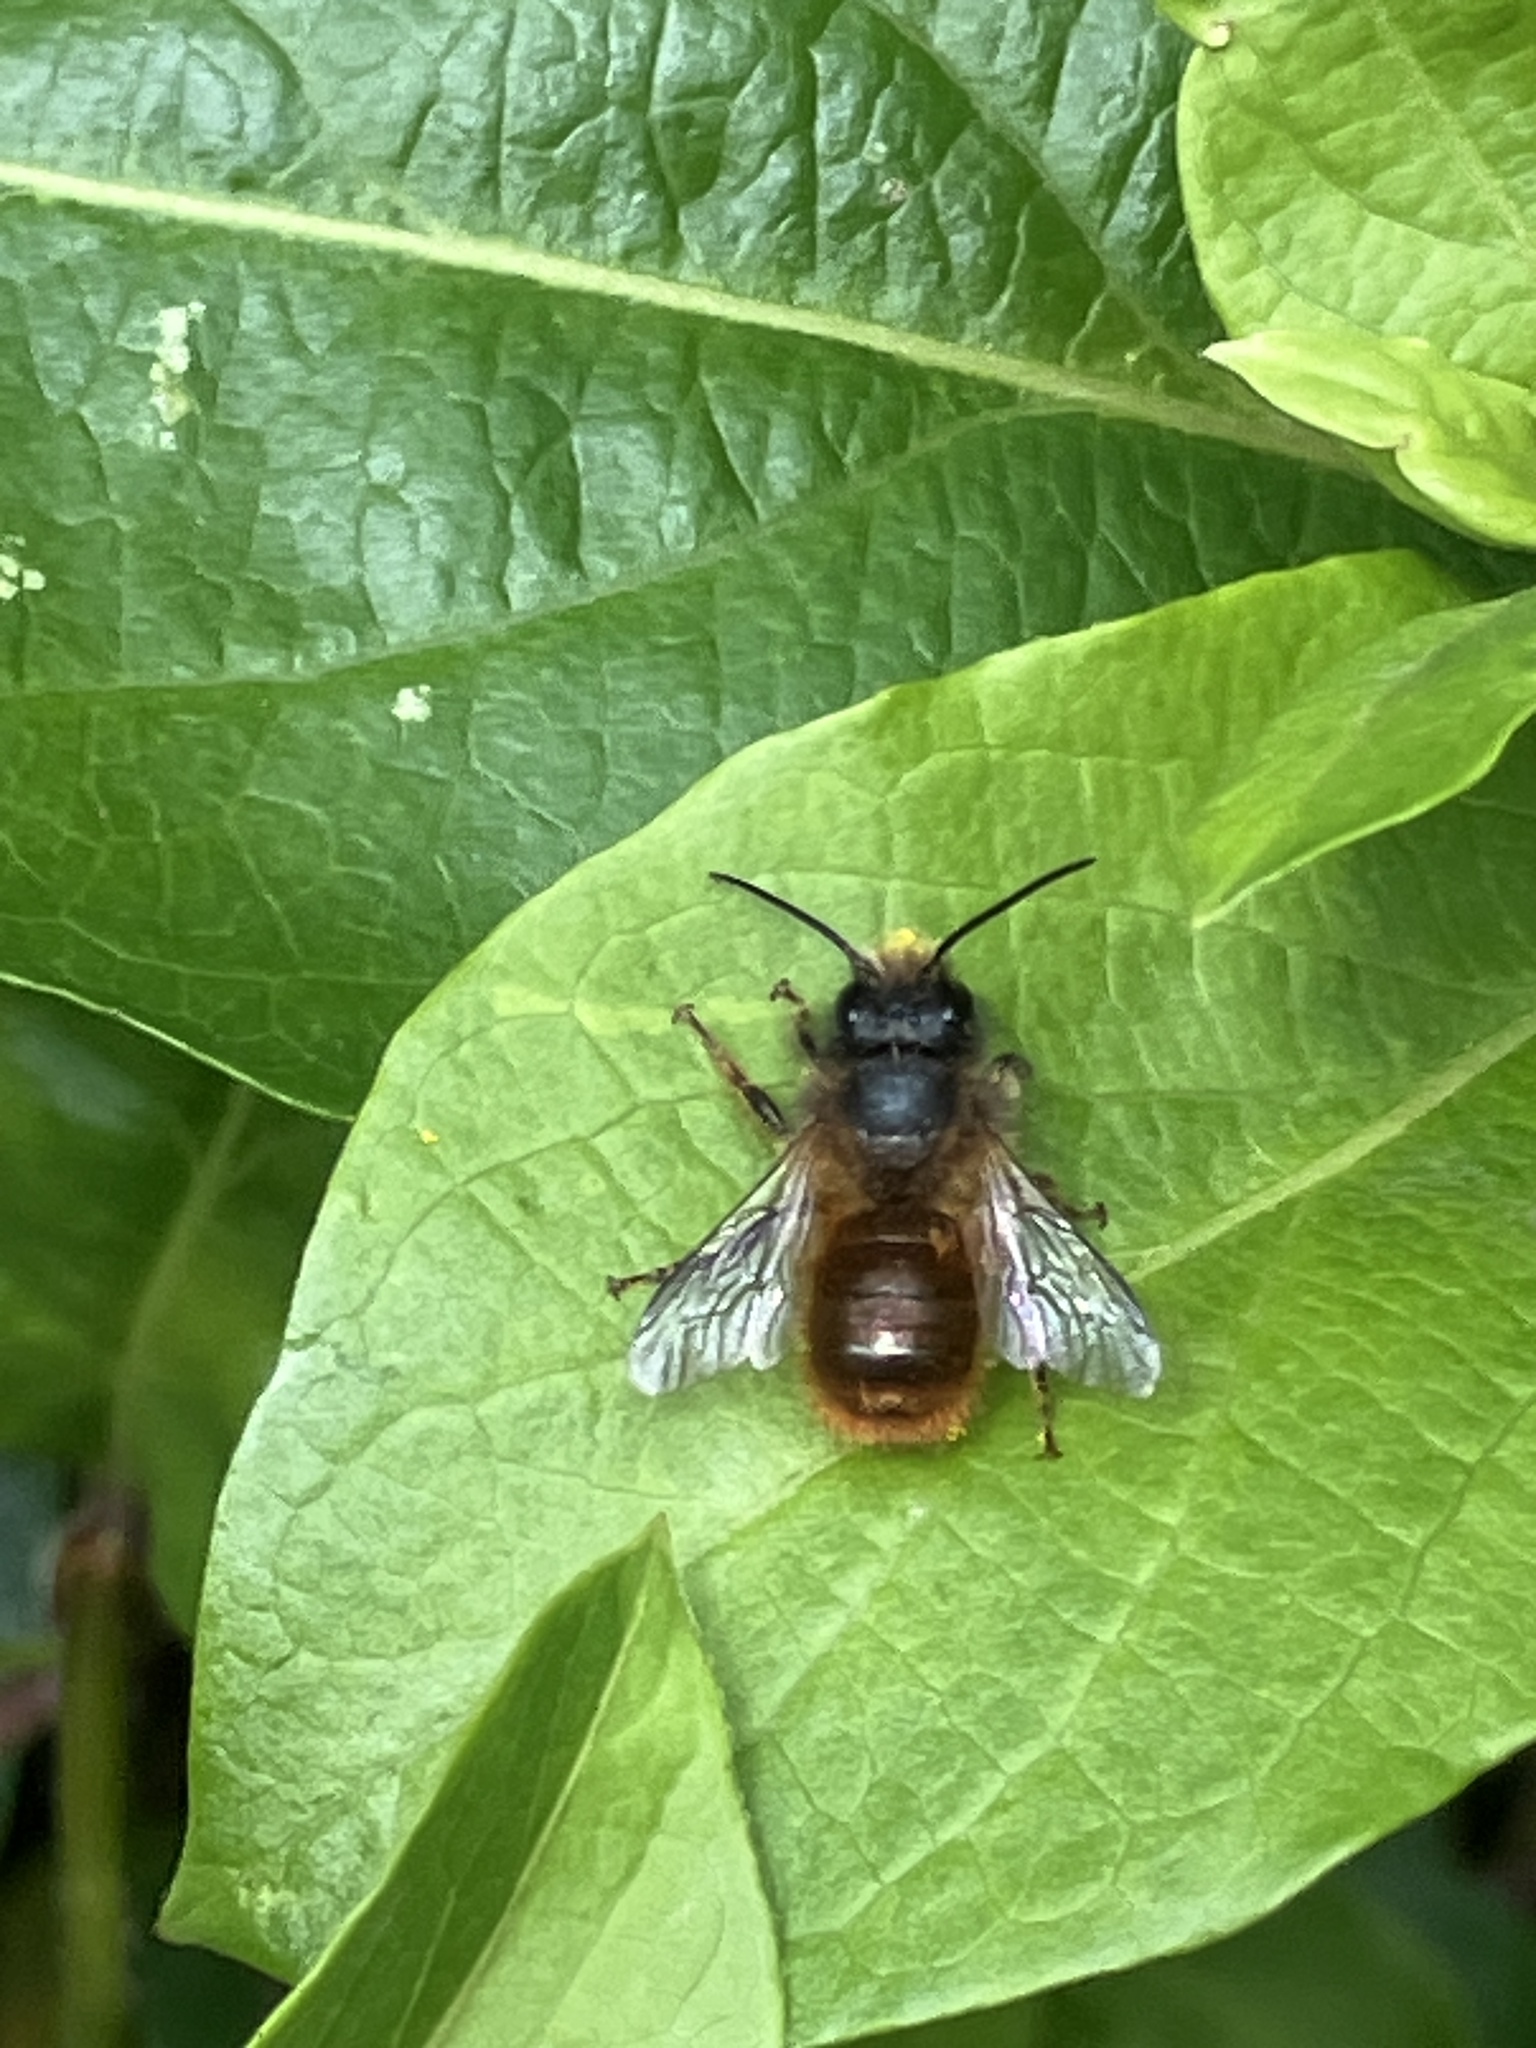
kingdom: Animalia
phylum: Arthropoda
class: Insecta
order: Hymenoptera
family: Megachilidae
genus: Osmia
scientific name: Osmia bicornis
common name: Red mason bee
